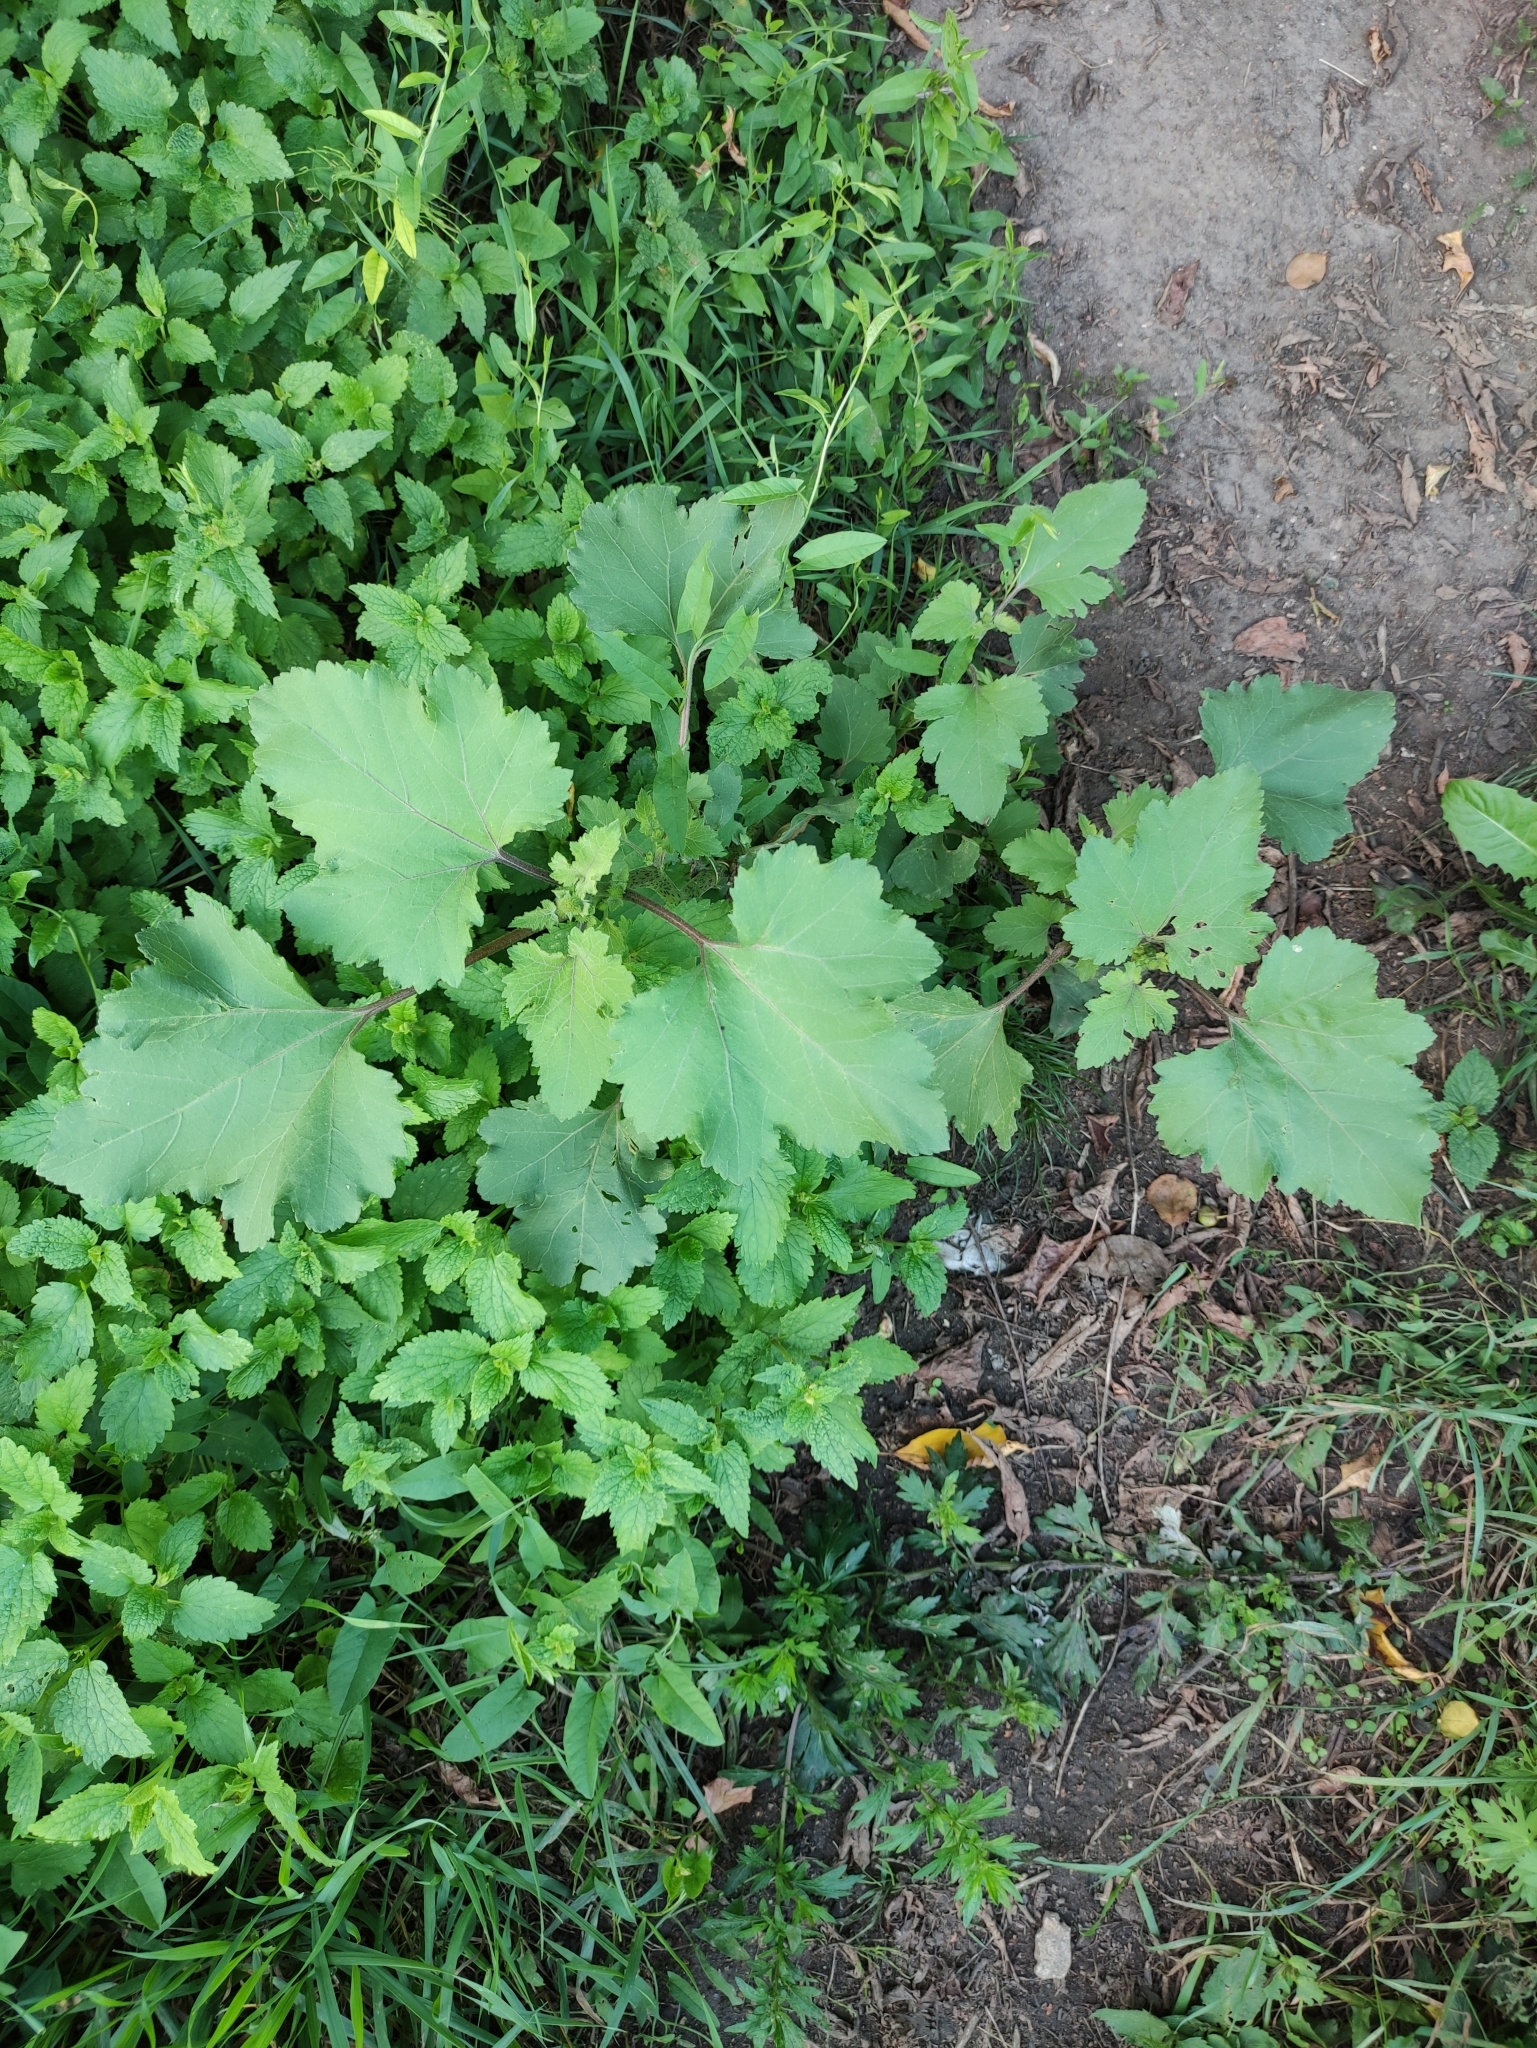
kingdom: Plantae
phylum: Tracheophyta
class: Magnoliopsida
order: Asterales
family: Asteraceae
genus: Xanthium
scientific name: Xanthium orientale
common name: Californian burr
